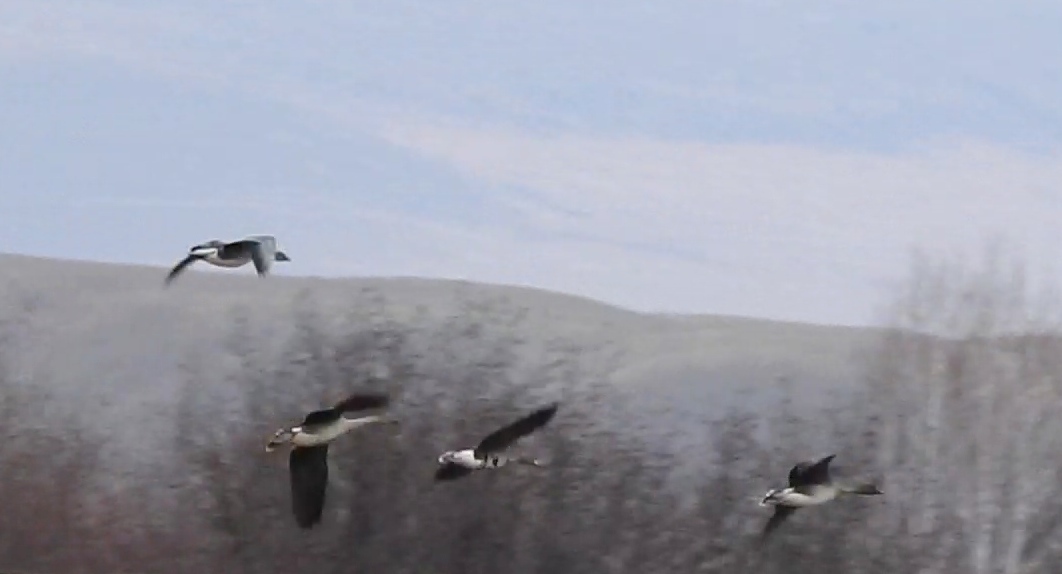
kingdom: Animalia
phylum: Chordata
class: Aves
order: Anseriformes
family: Anatidae
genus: Anser
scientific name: Anser fabalis
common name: Bean goose
